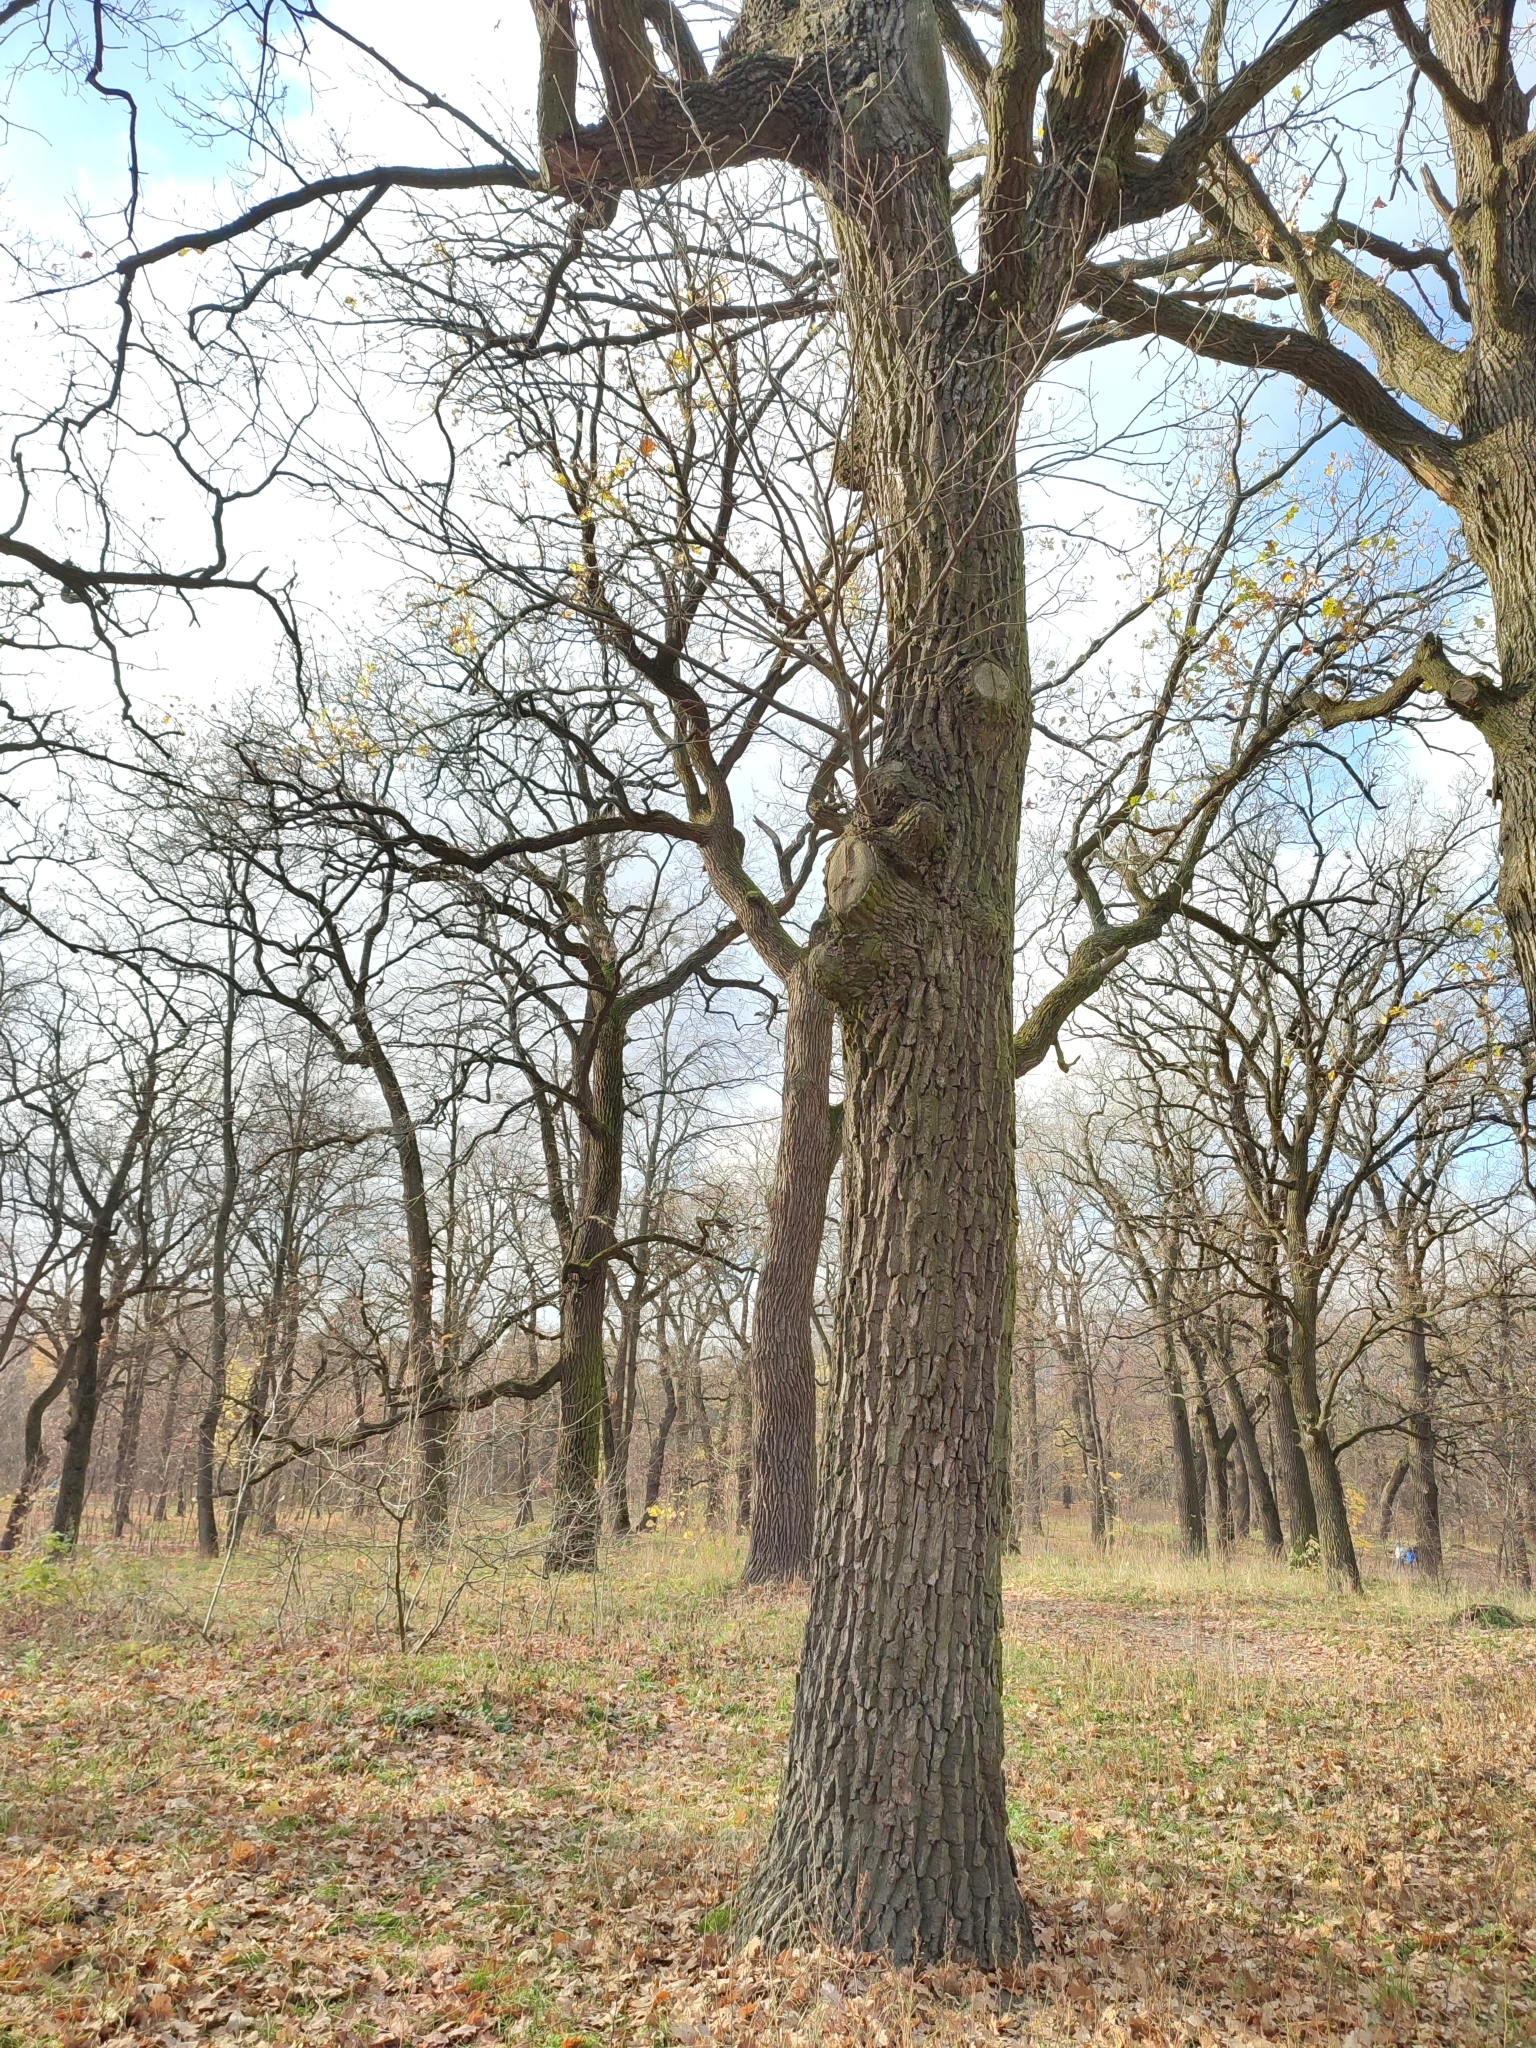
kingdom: Plantae
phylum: Tracheophyta
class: Magnoliopsida
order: Fagales
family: Fagaceae
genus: Quercus
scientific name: Quercus robur
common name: Pedunculate oak
